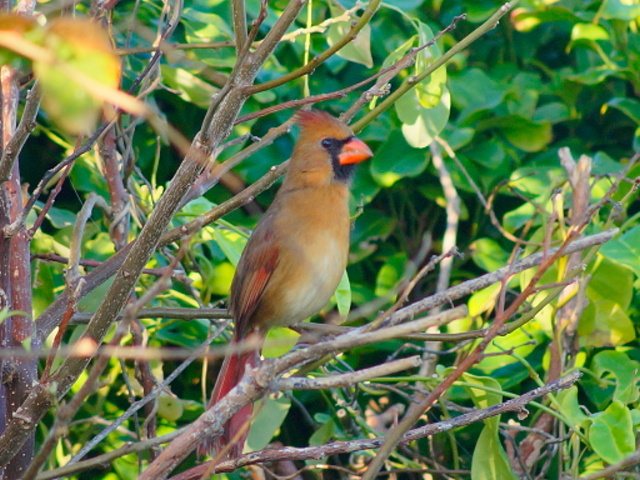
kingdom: Animalia
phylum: Chordata
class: Aves
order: Passeriformes
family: Cardinalidae
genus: Cardinalis
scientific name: Cardinalis cardinalis
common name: Northern cardinal
